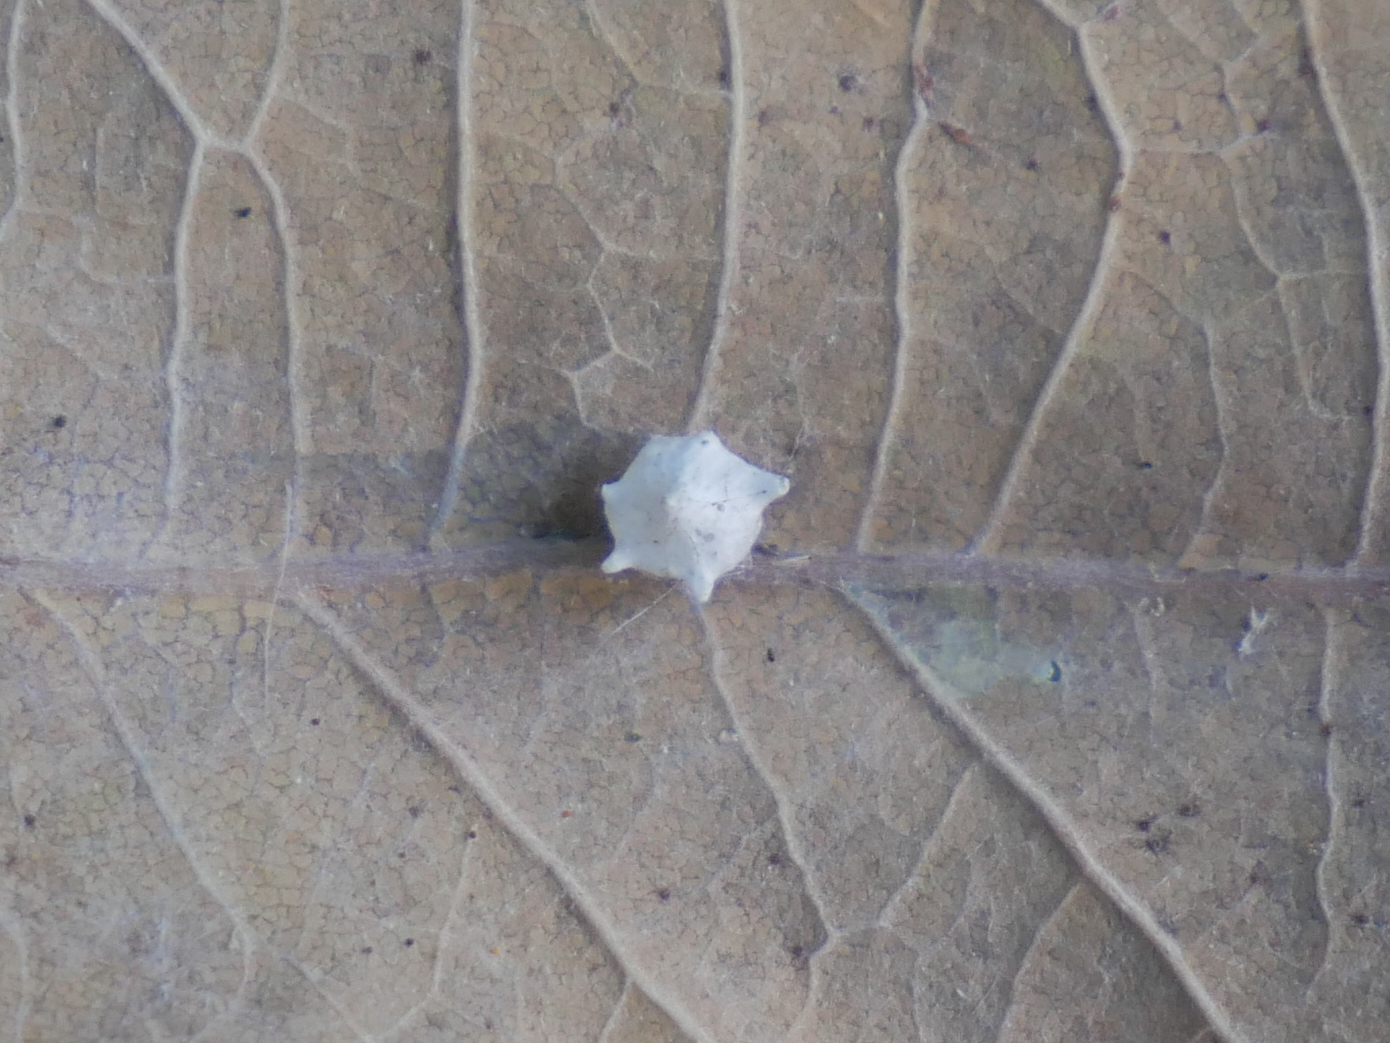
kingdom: Animalia
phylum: Arthropoda
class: Arachnida
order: Araneae
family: Theridiidae
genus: Paidiscura
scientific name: Paidiscura pallens
